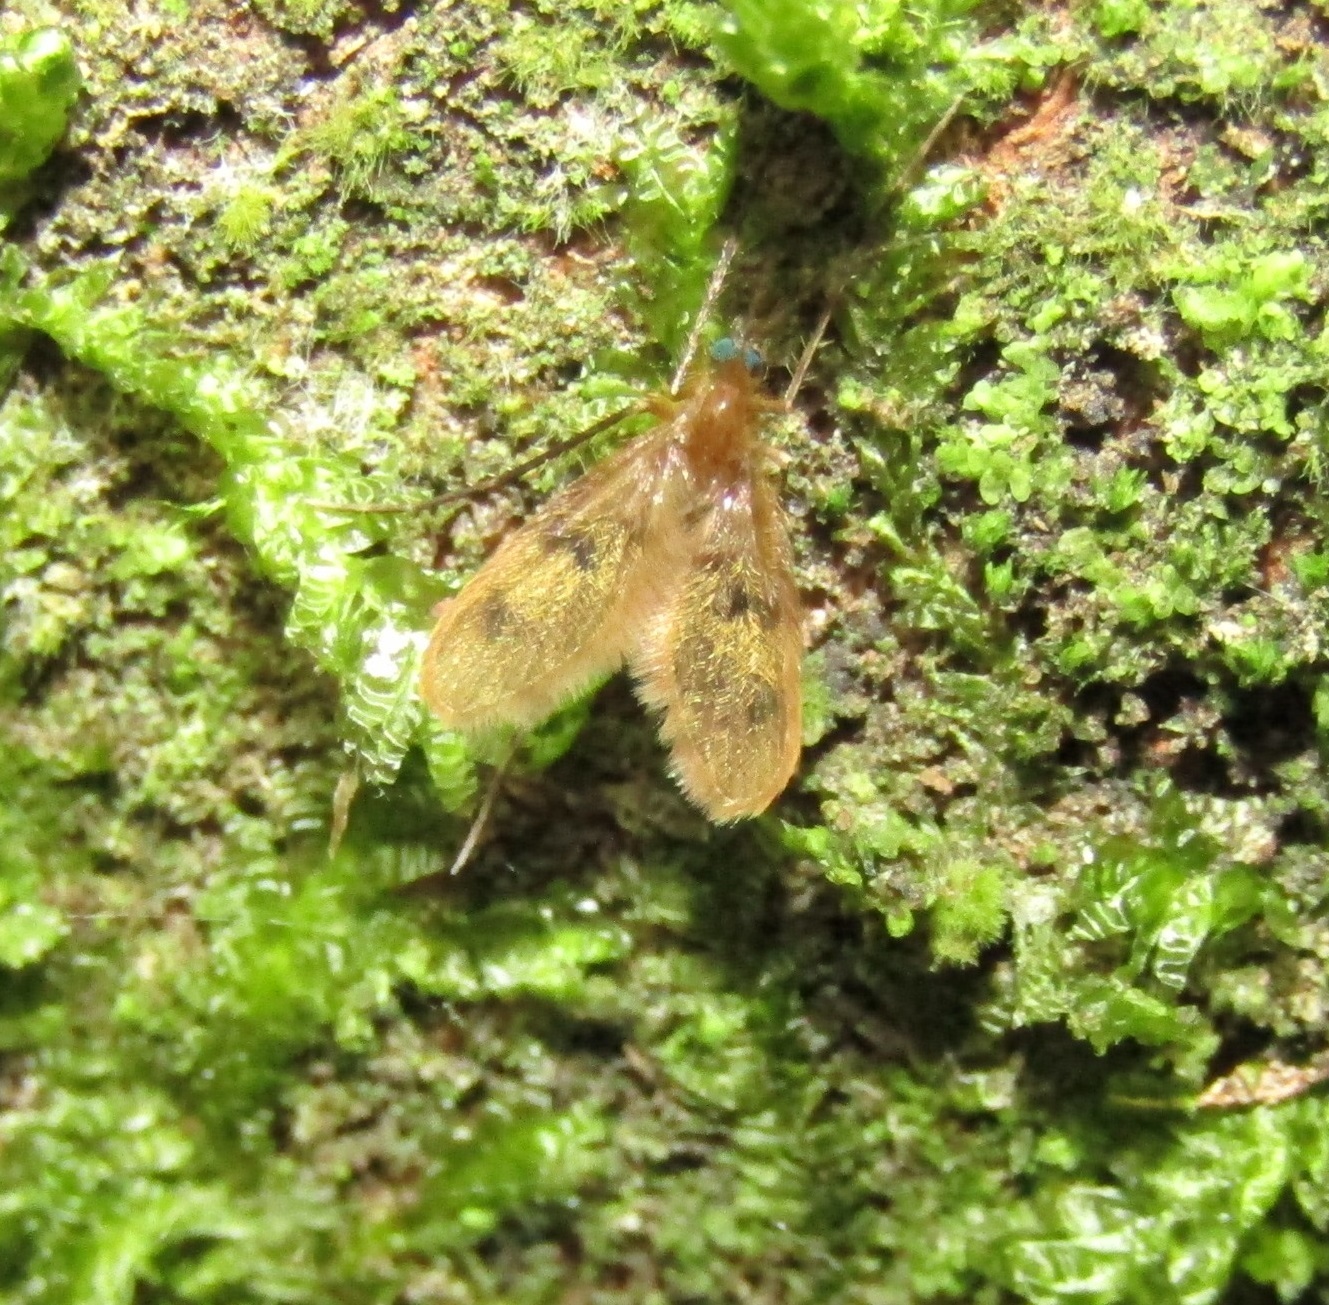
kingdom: Animalia
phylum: Arthropoda
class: Insecta
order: Diptera
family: Psychodidae
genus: Notofairchildia
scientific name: Notofairchildia zelandiae
